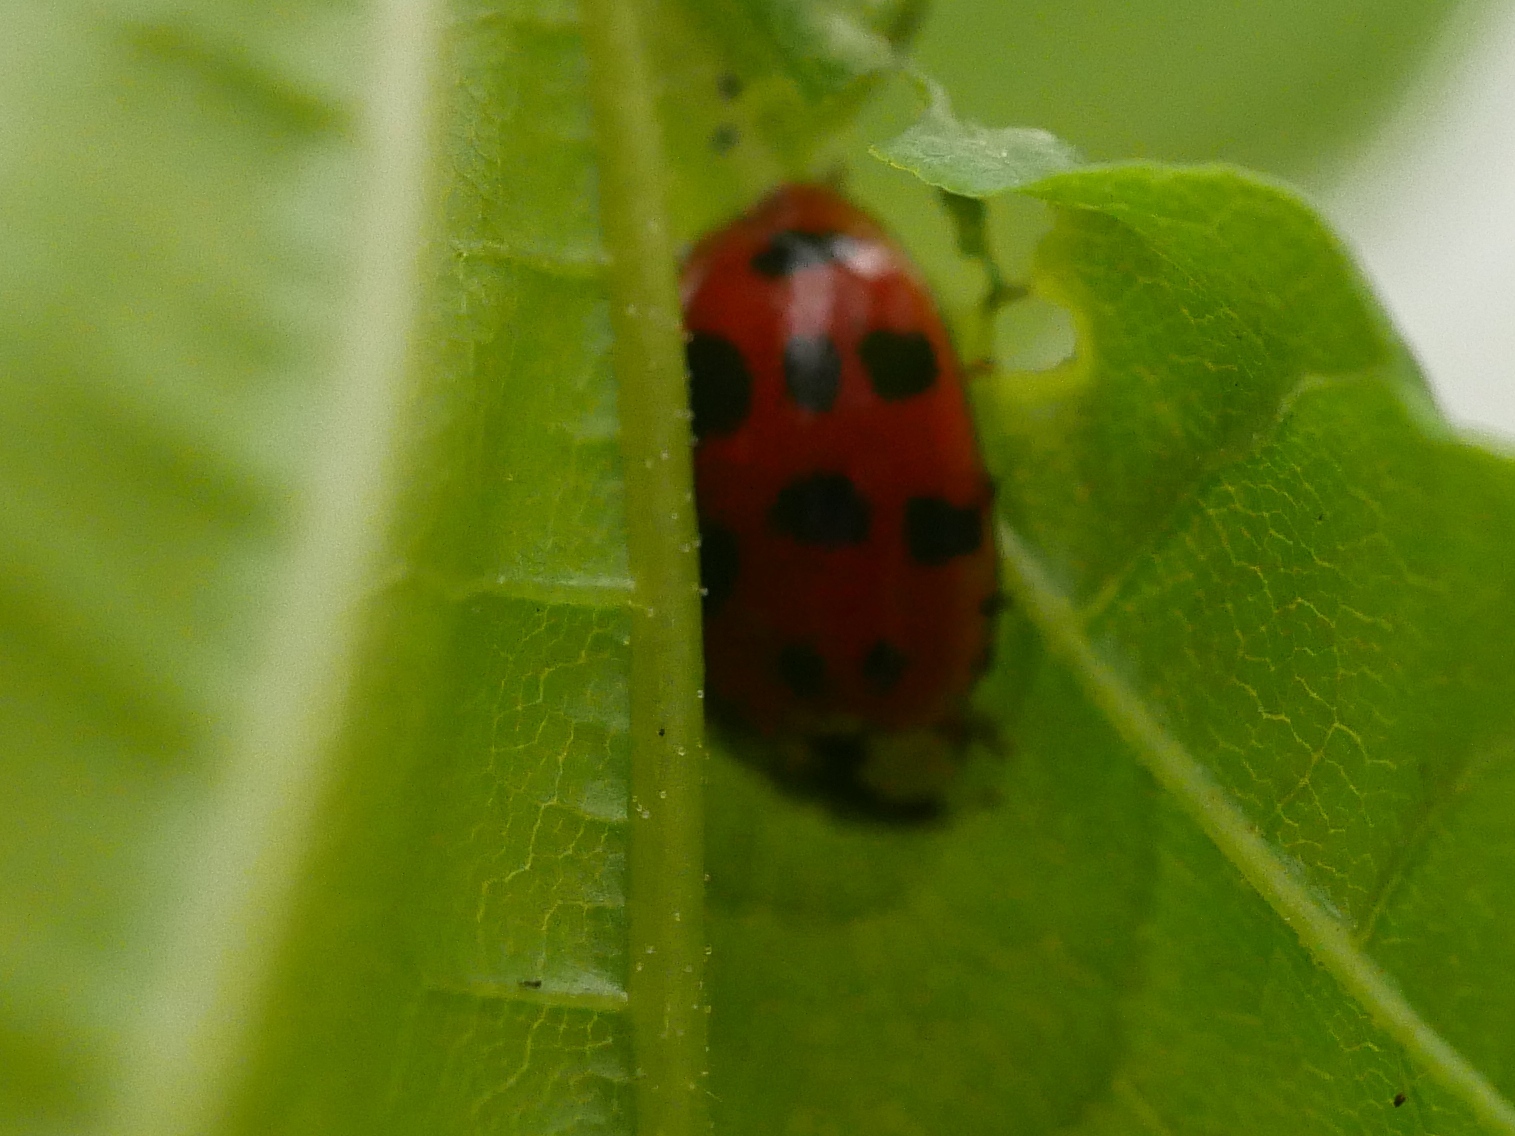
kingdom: Animalia
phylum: Arthropoda
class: Insecta
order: Coleoptera
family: Coccinellidae
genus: Harmonia
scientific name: Harmonia axyridis
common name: Harlequin ladybird
